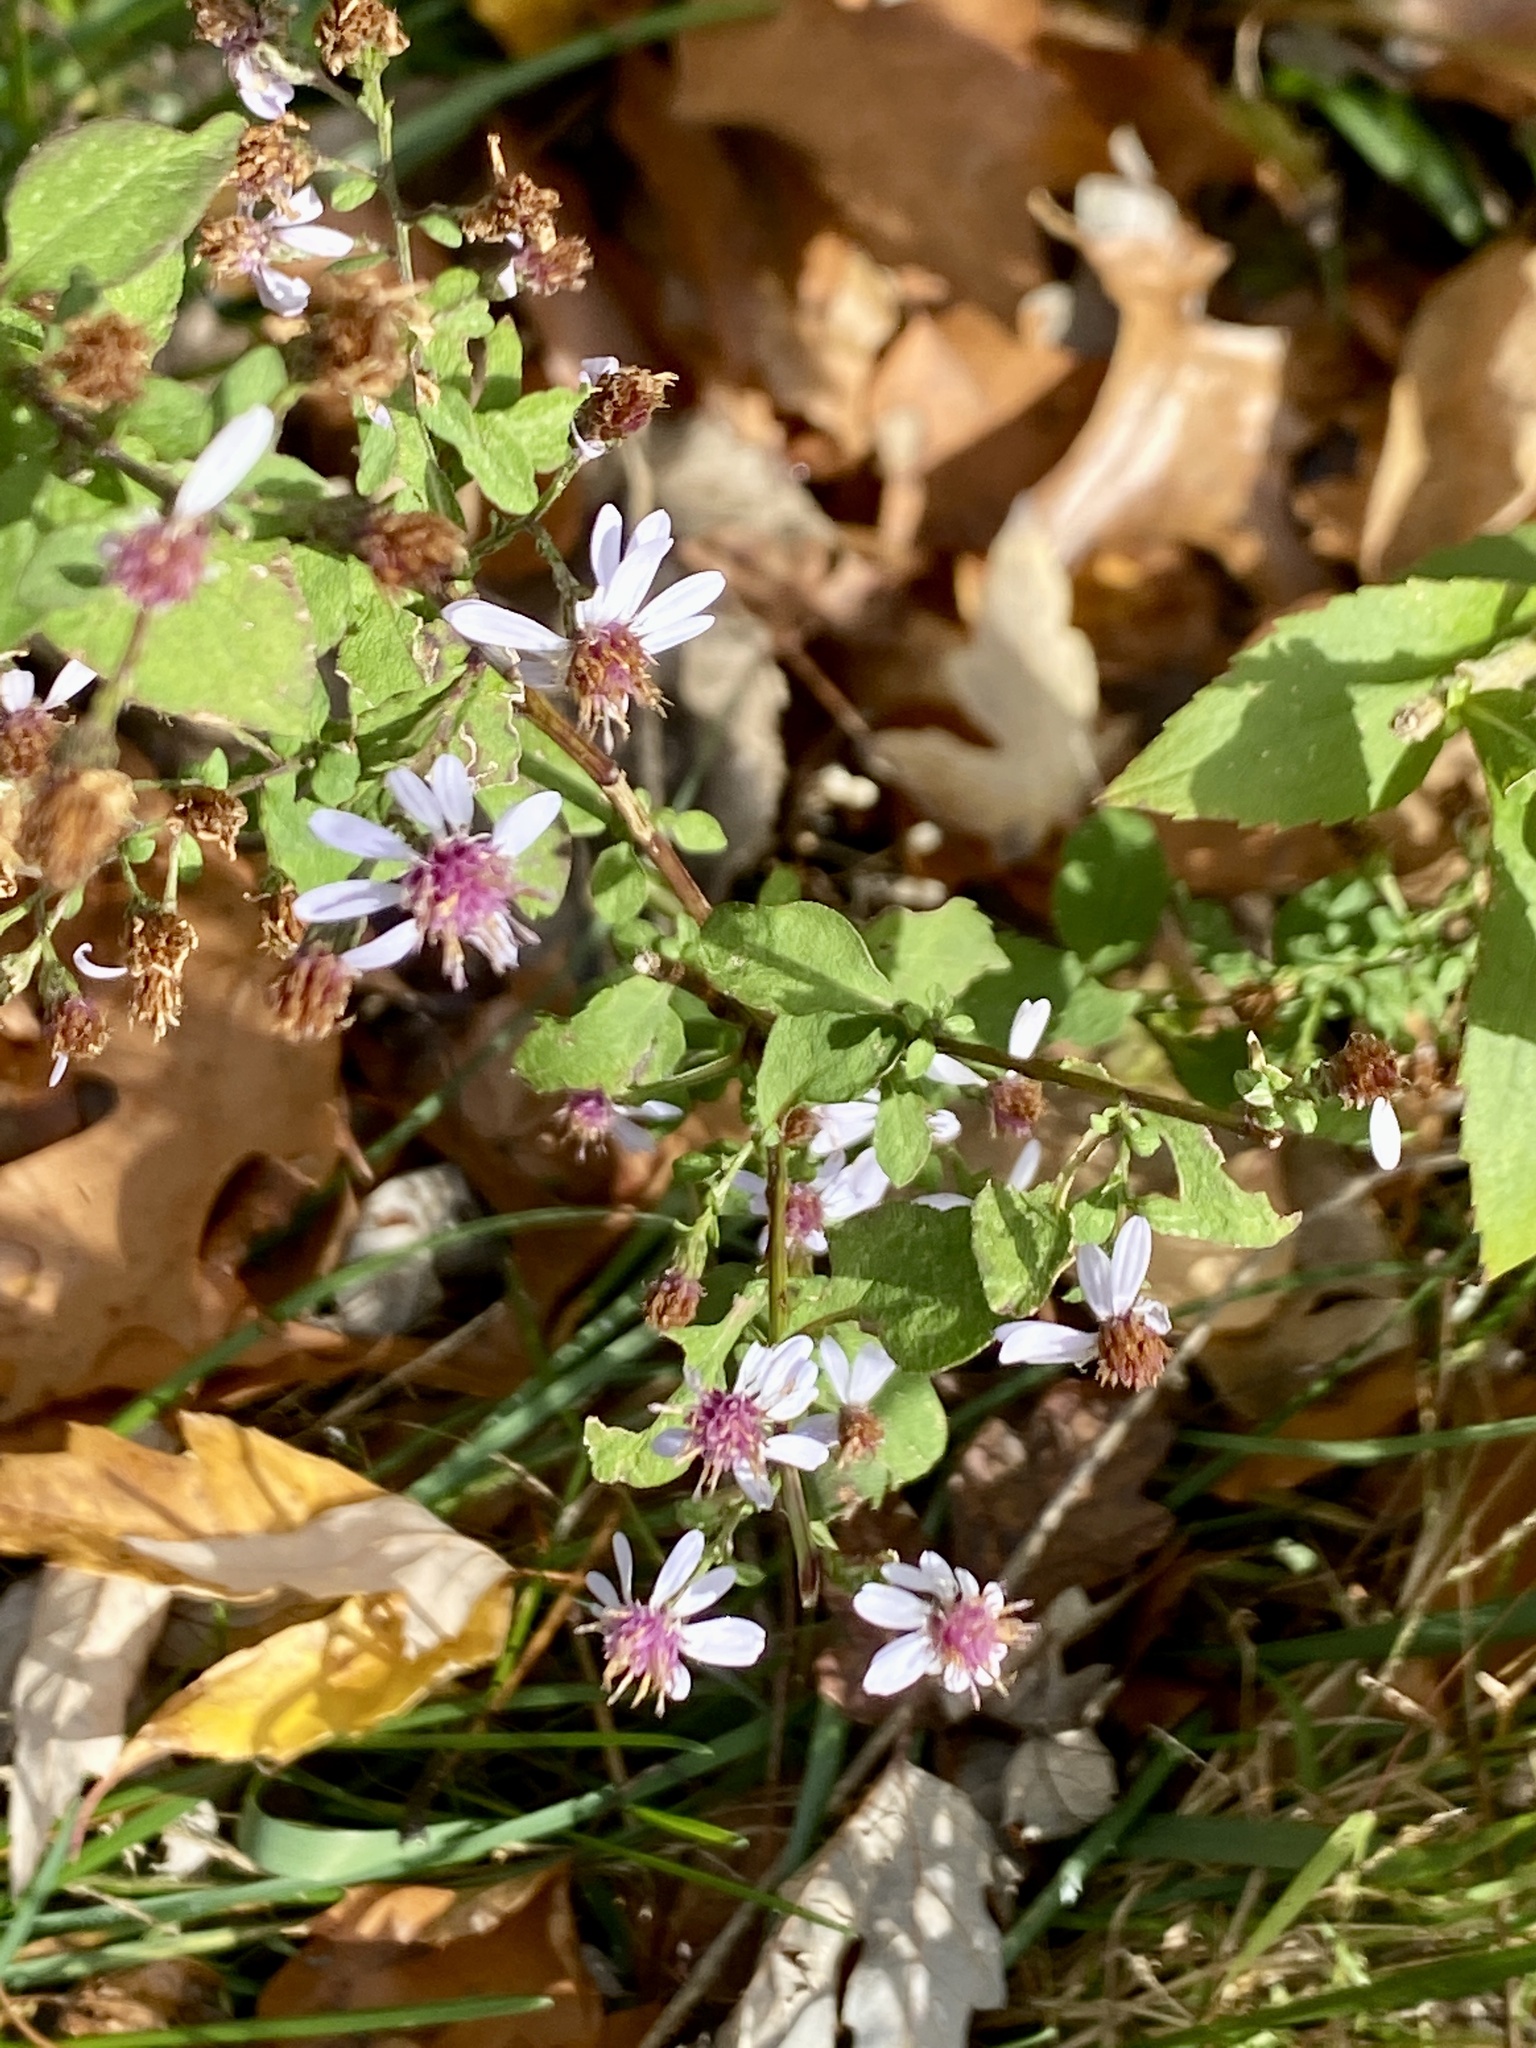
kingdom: Plantae
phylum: Tracheophyta
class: Magnoliopsida
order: Asterales
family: Asteraceae
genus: Symphyotrichum
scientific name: Symphyotrichum cordifolium
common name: Beeweed
